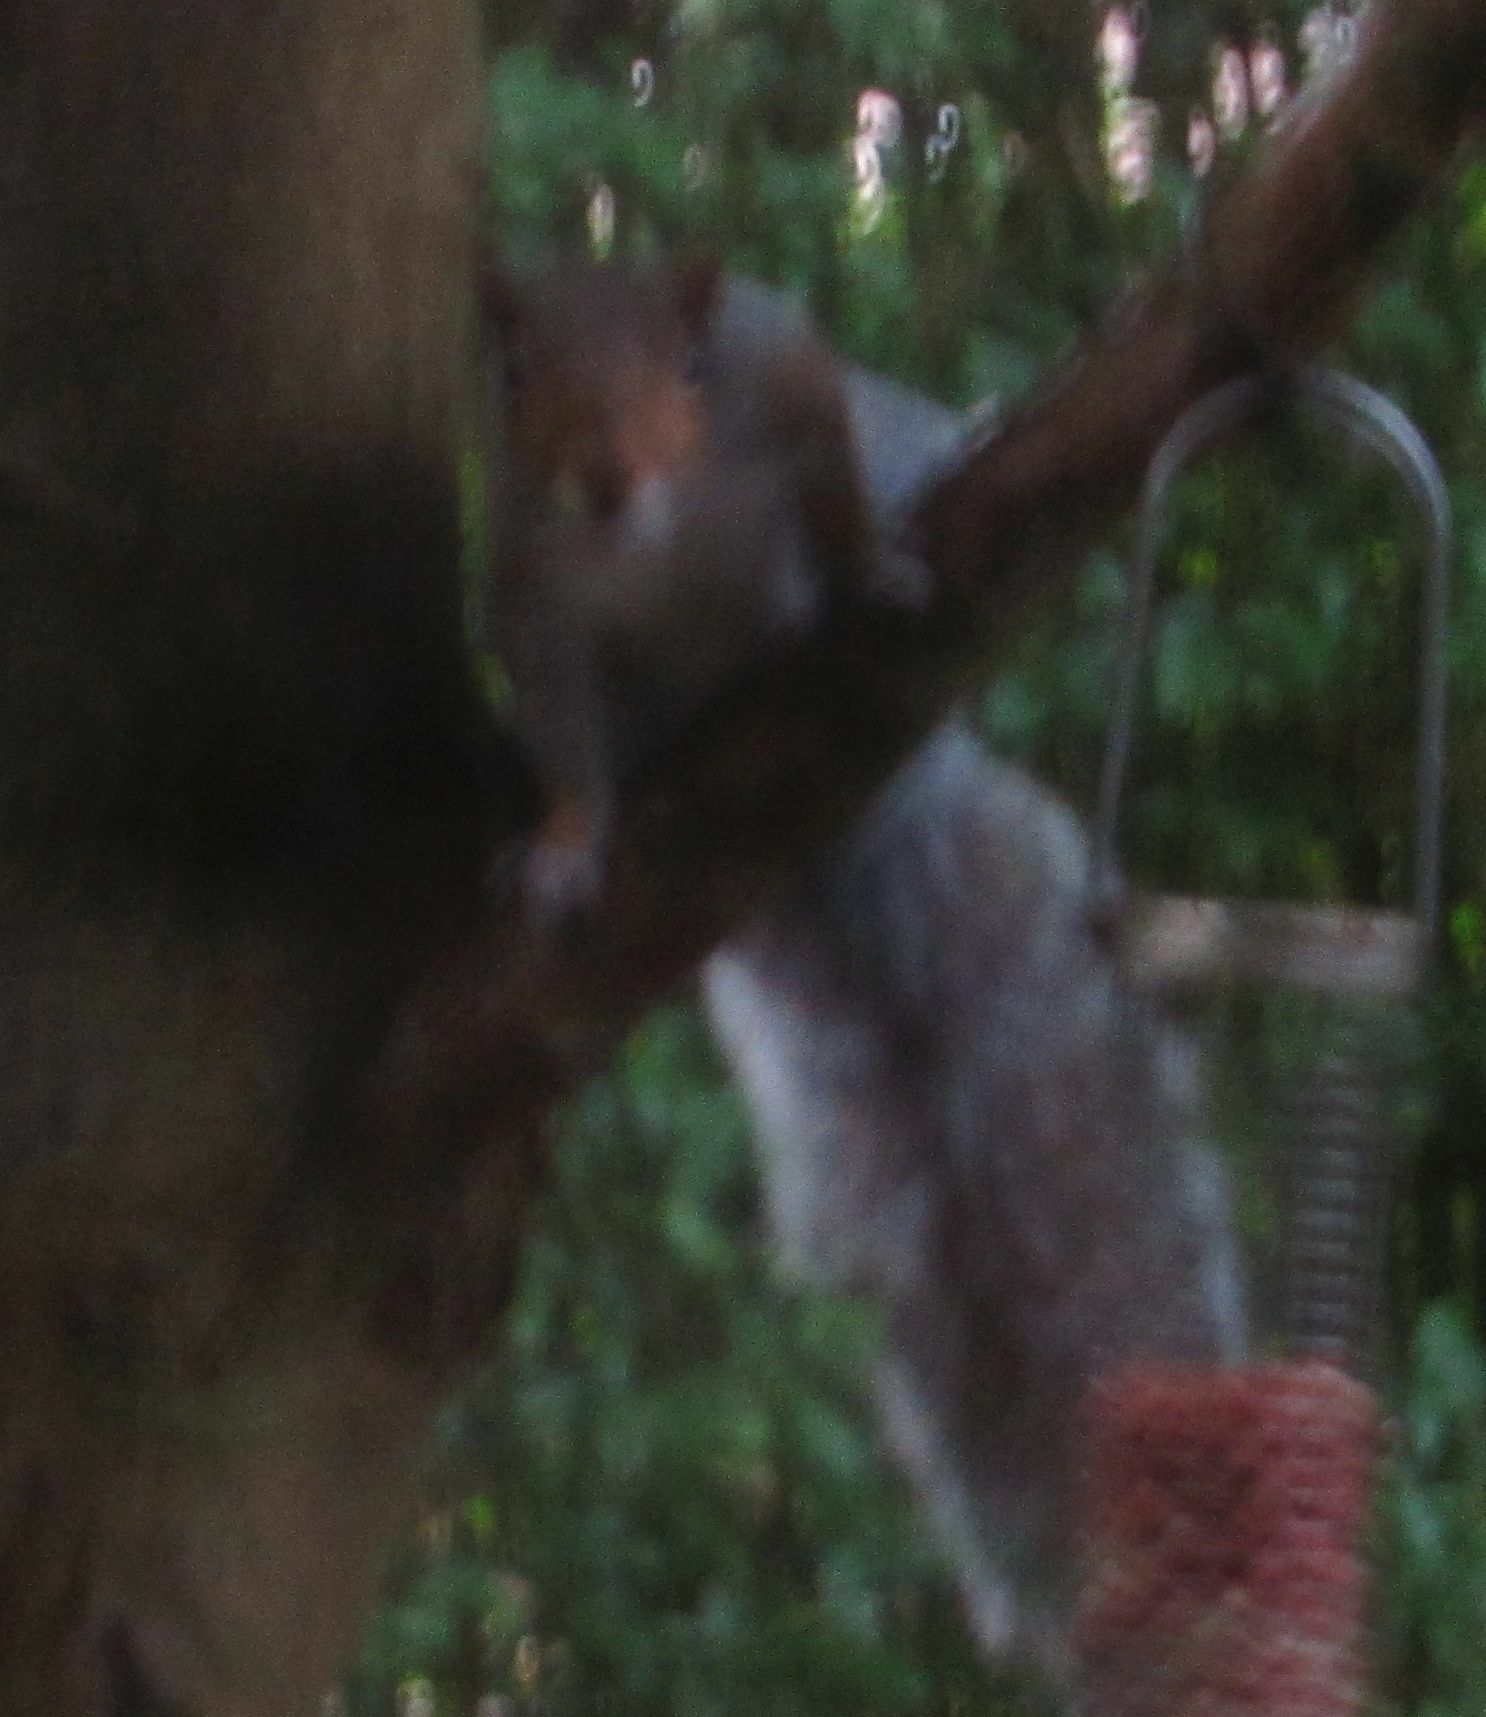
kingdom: Animalia
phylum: Chordata
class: Mammalia
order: Rodentia
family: Sciuridae
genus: Sciurus
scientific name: Sciurus carolinensis
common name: Eastern gray squirrel
